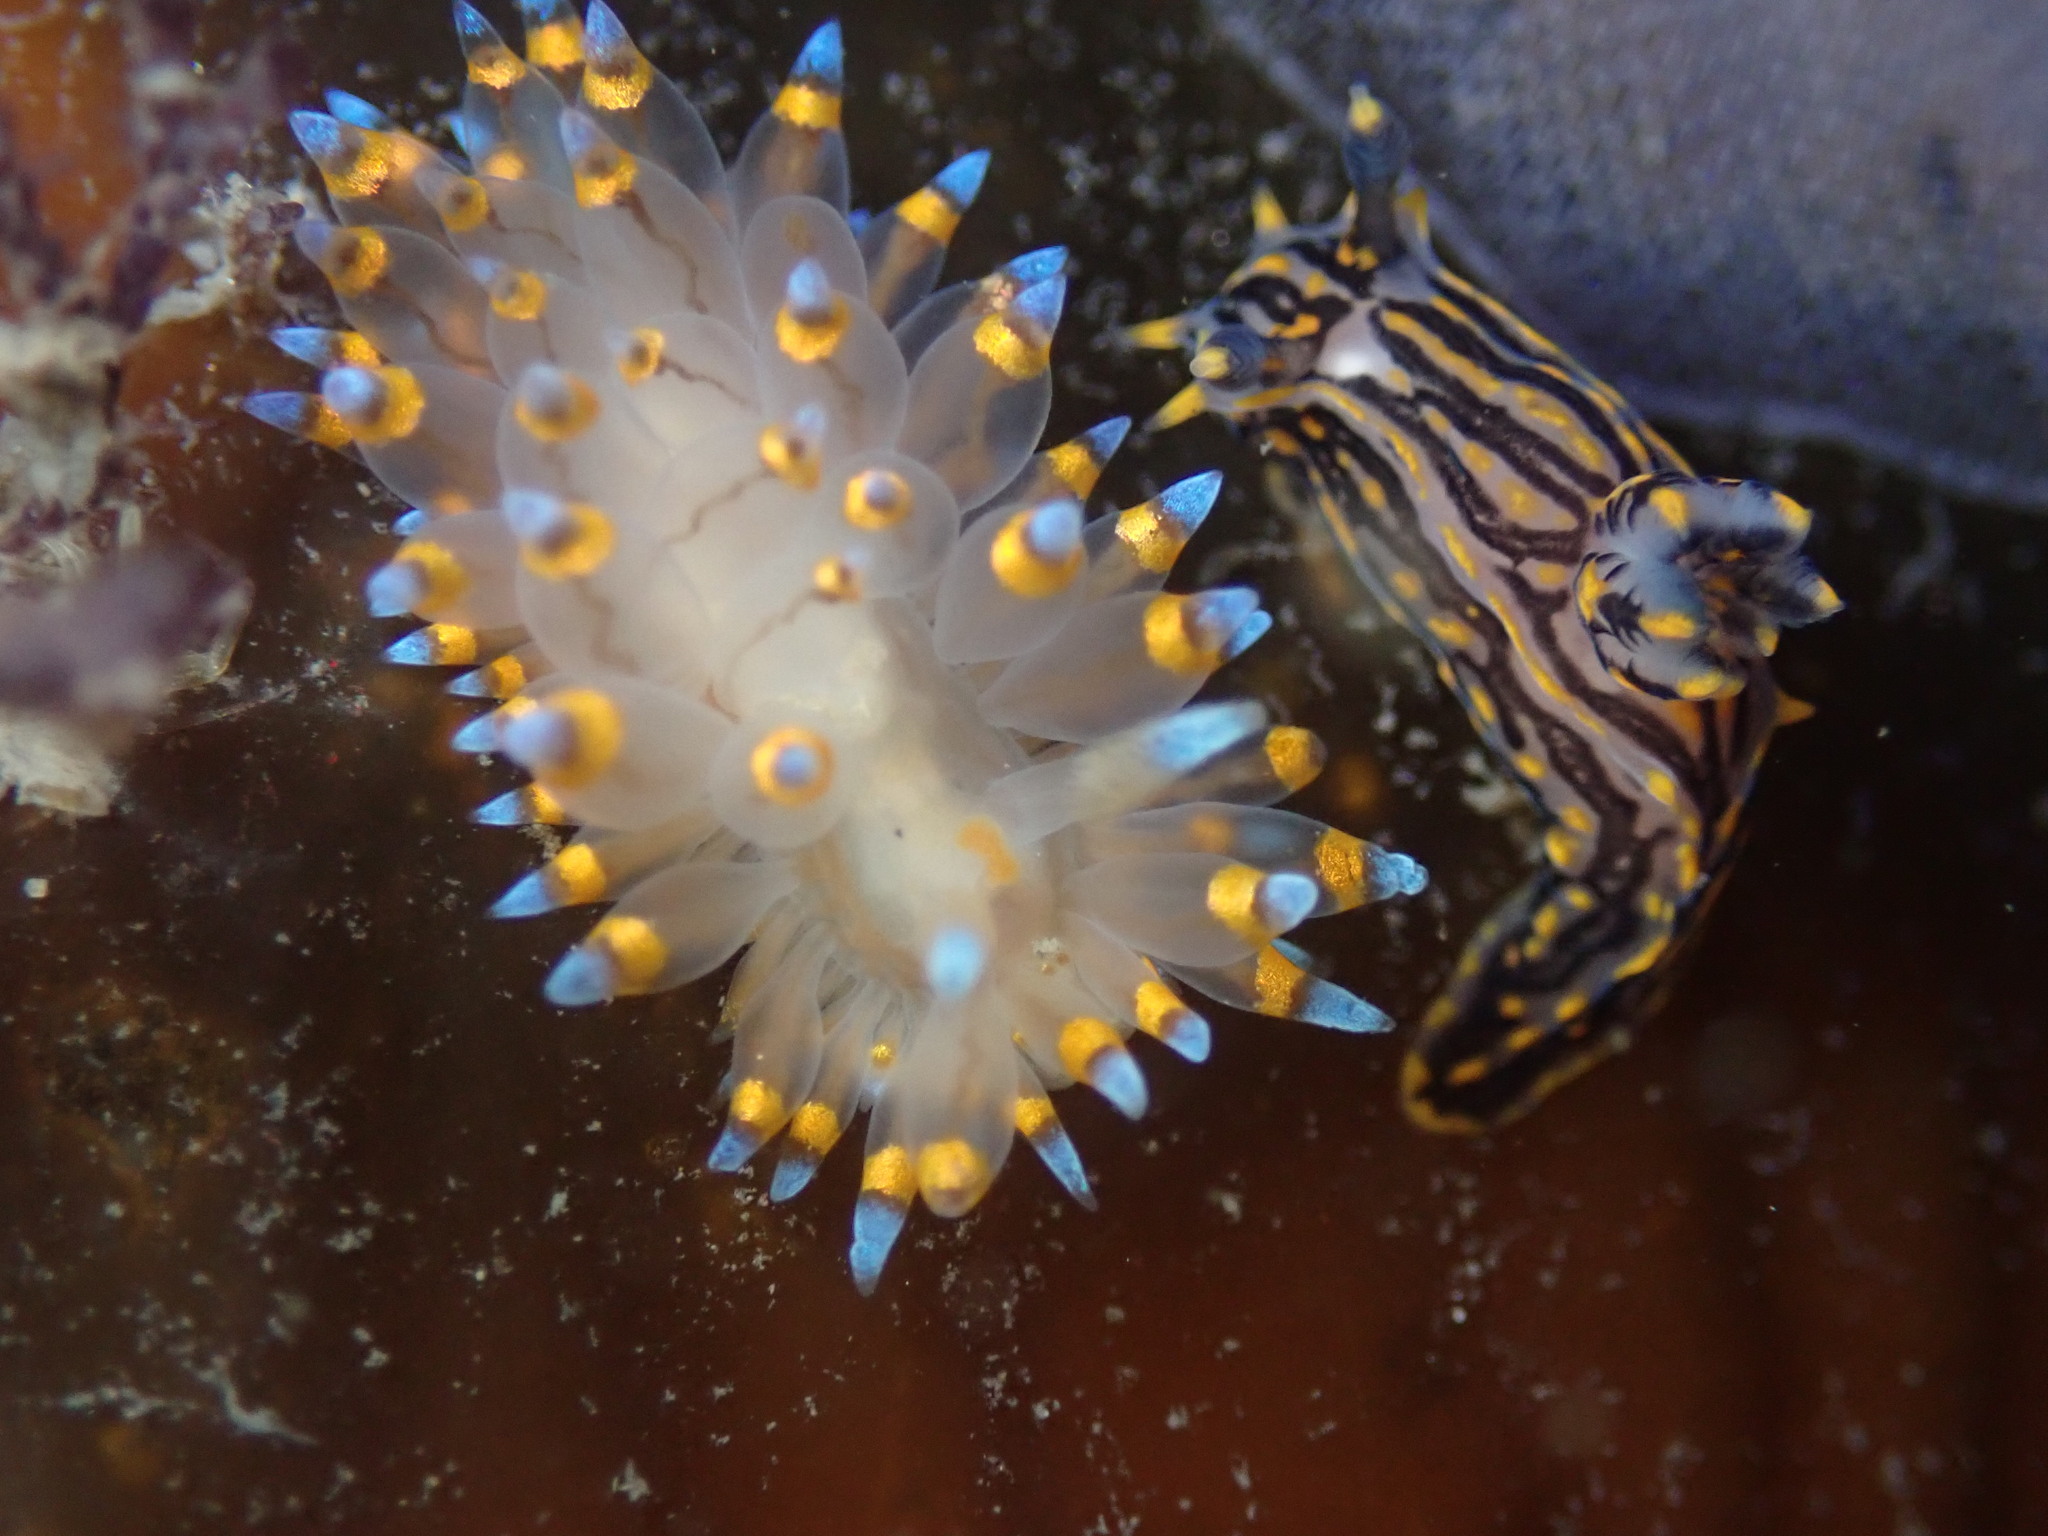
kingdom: Animalia
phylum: Mollusca
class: Gastropoda
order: Nudibranchia
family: Janolidae
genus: Antiopella
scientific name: Antiopella barbarensis
